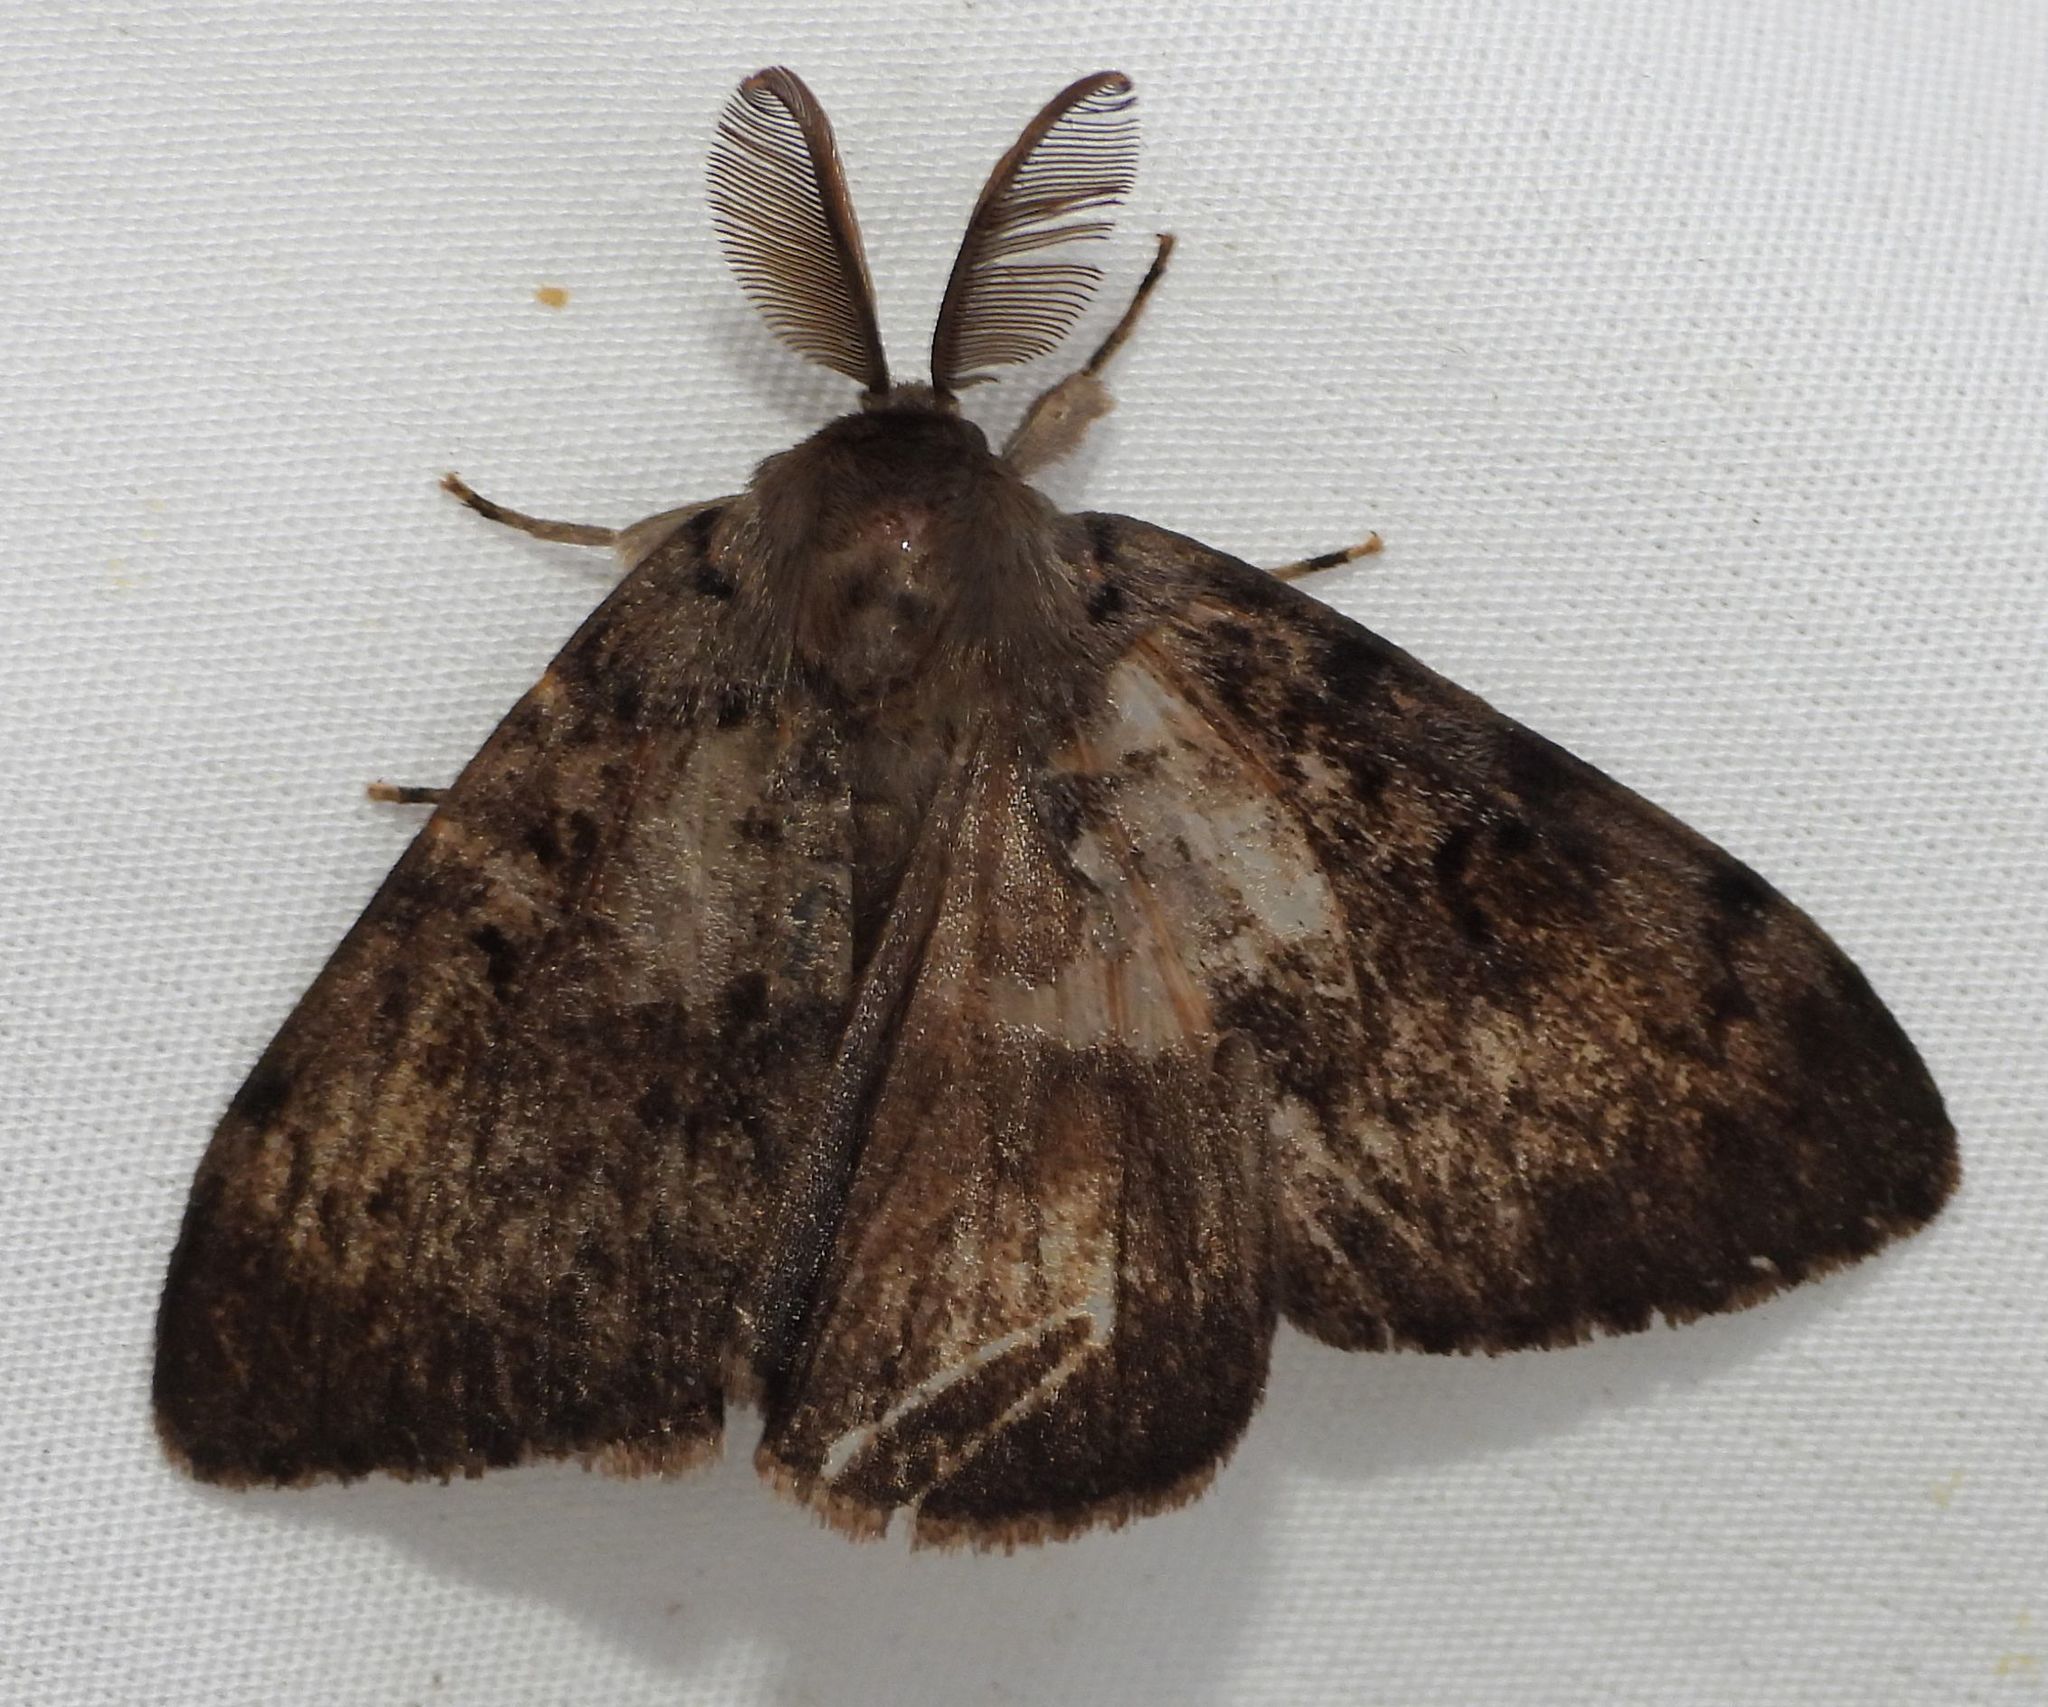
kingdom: Animalia
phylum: Arthropoda
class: Insecta
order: Lepidoptera
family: Erebidae
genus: Lymantria
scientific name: Lymantria dispar
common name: Gypsy moth
